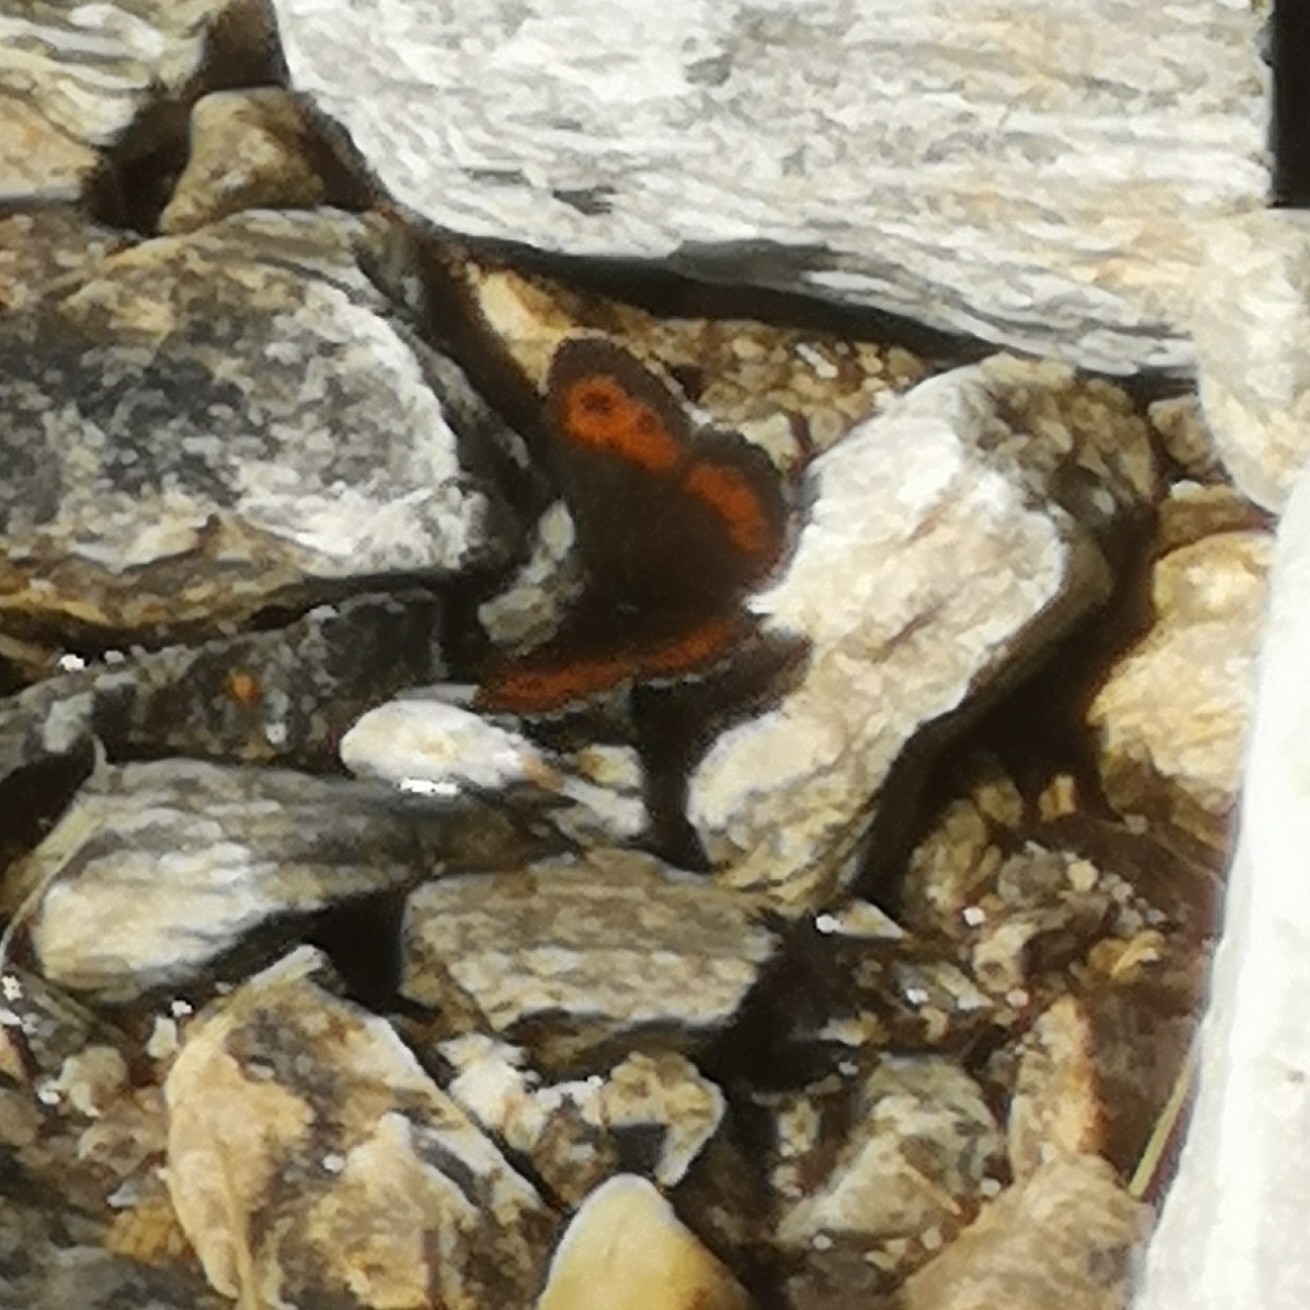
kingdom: Animalia
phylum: Arthropoda
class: Insecta
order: Lepidoptera
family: Nymphalidae
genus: Erebia
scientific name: Erebia euryale
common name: Large ringlet
